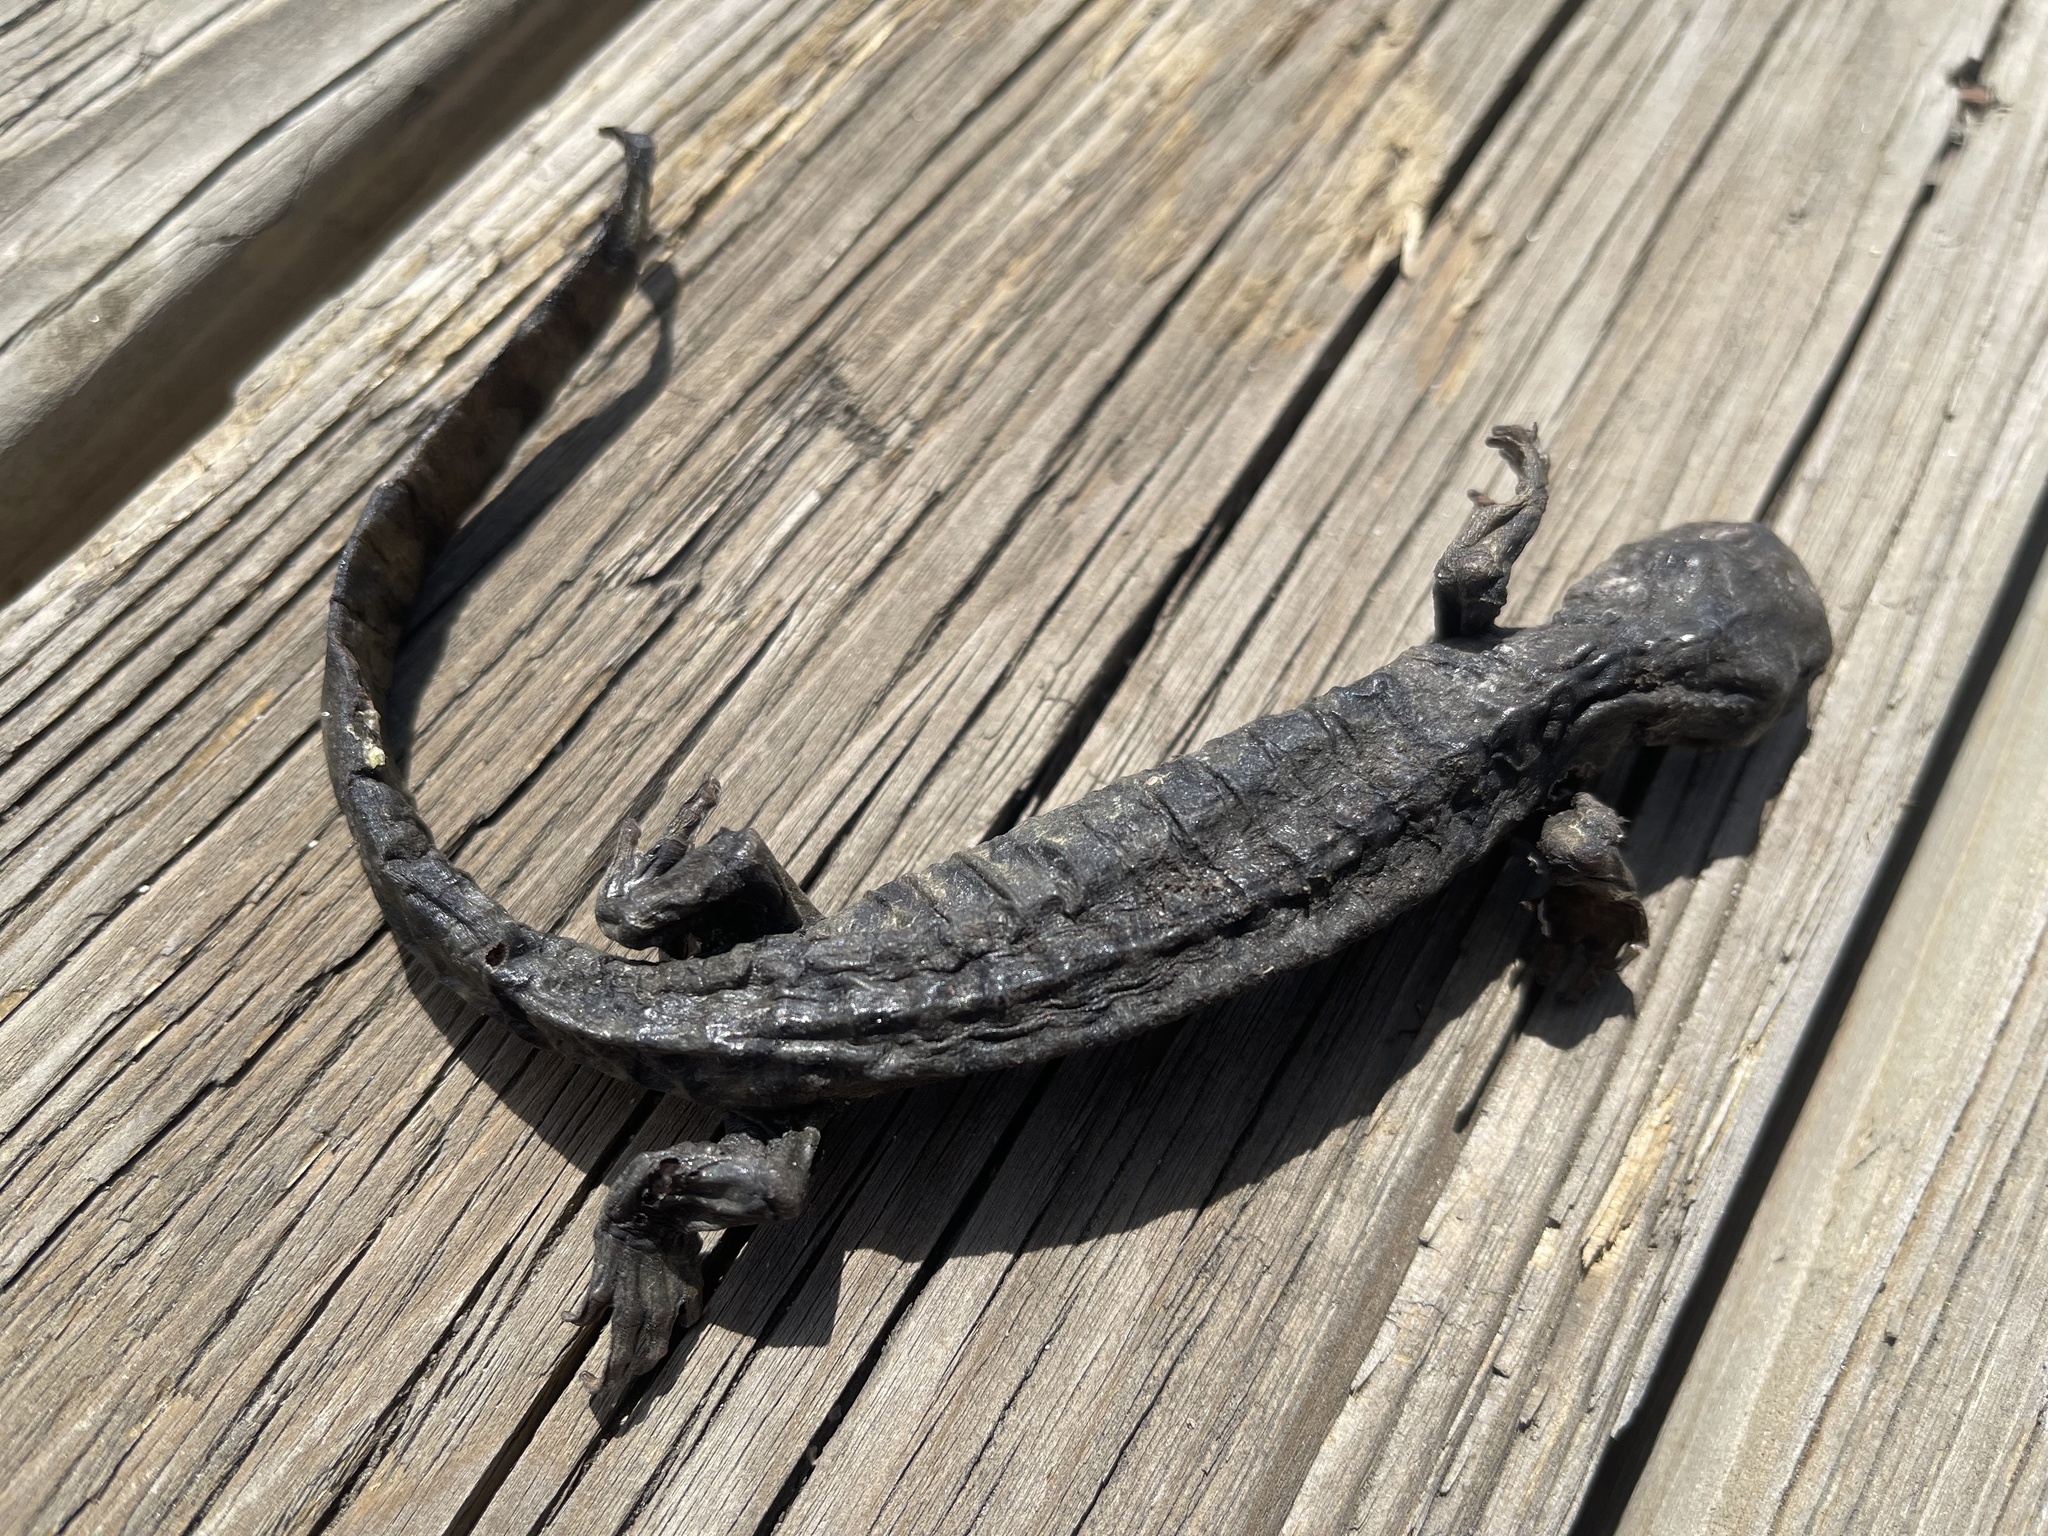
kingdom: Animalia
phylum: Chordata
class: Amphibia
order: Caudata
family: Ambystomatidae
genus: Ambystoma
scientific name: Ambystoma mavortium
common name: Western tiger salamander
